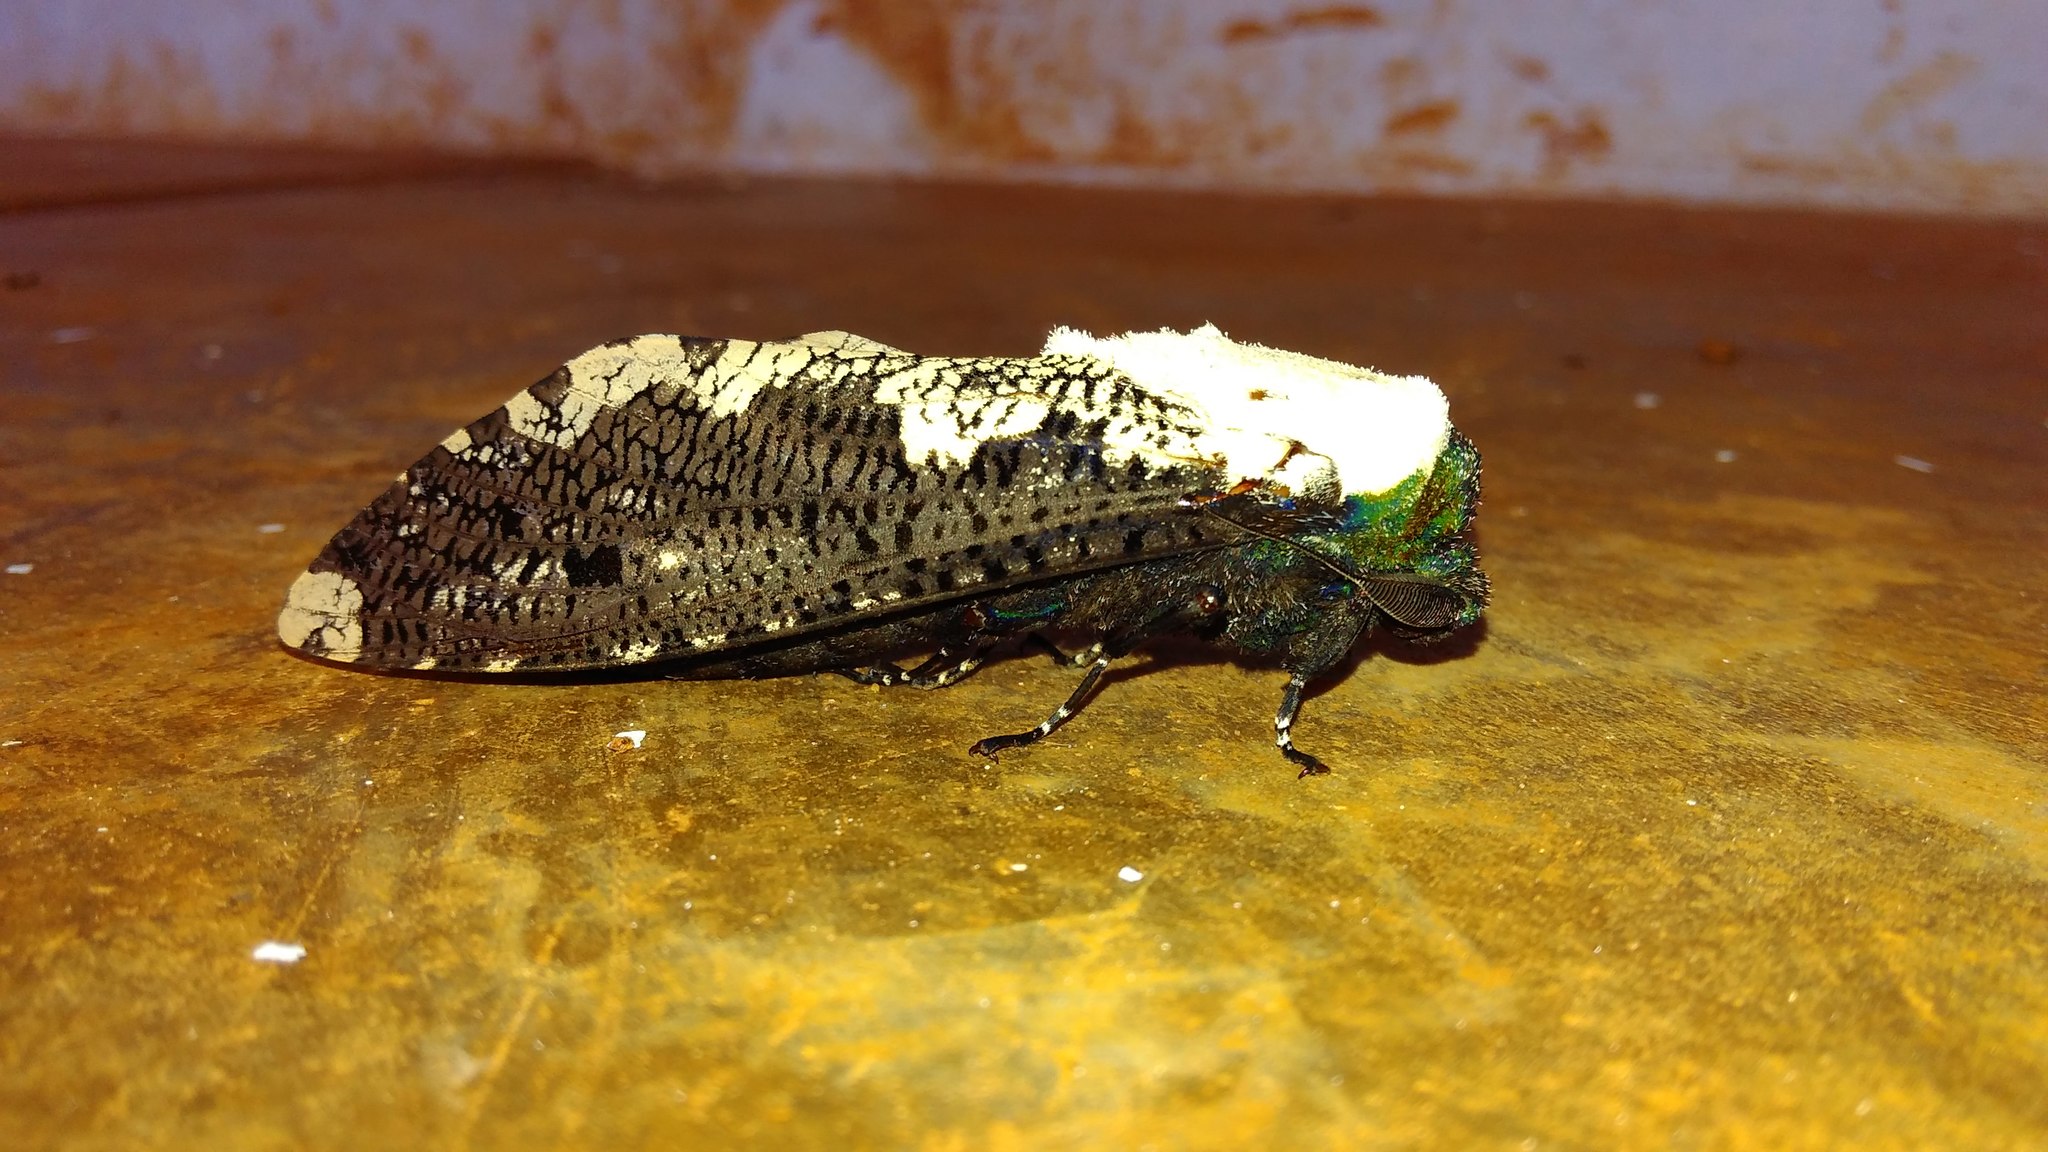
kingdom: Animalia
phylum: Arthropoda
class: Insecta
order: Lepidoptera
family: Cossidae
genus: Xyleutes
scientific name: Xyleutes persona
